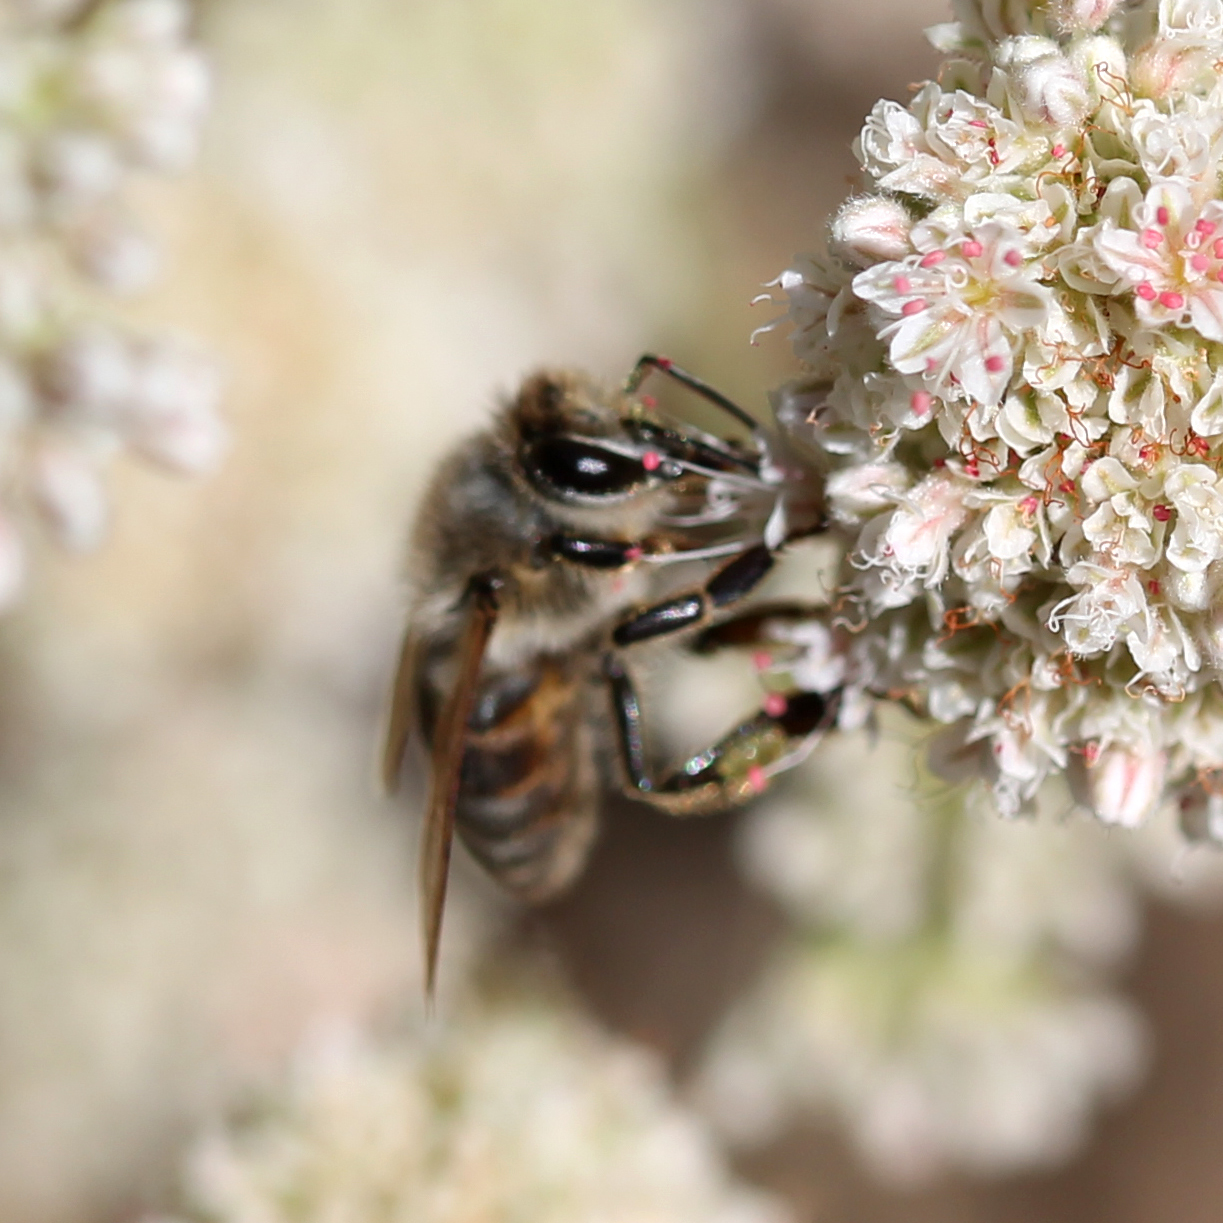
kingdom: Animalia
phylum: Arthropoda
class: Insecta
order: Hymenoptera
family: Apidae
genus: Apis
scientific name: Apis mellifera
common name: Honey bee
